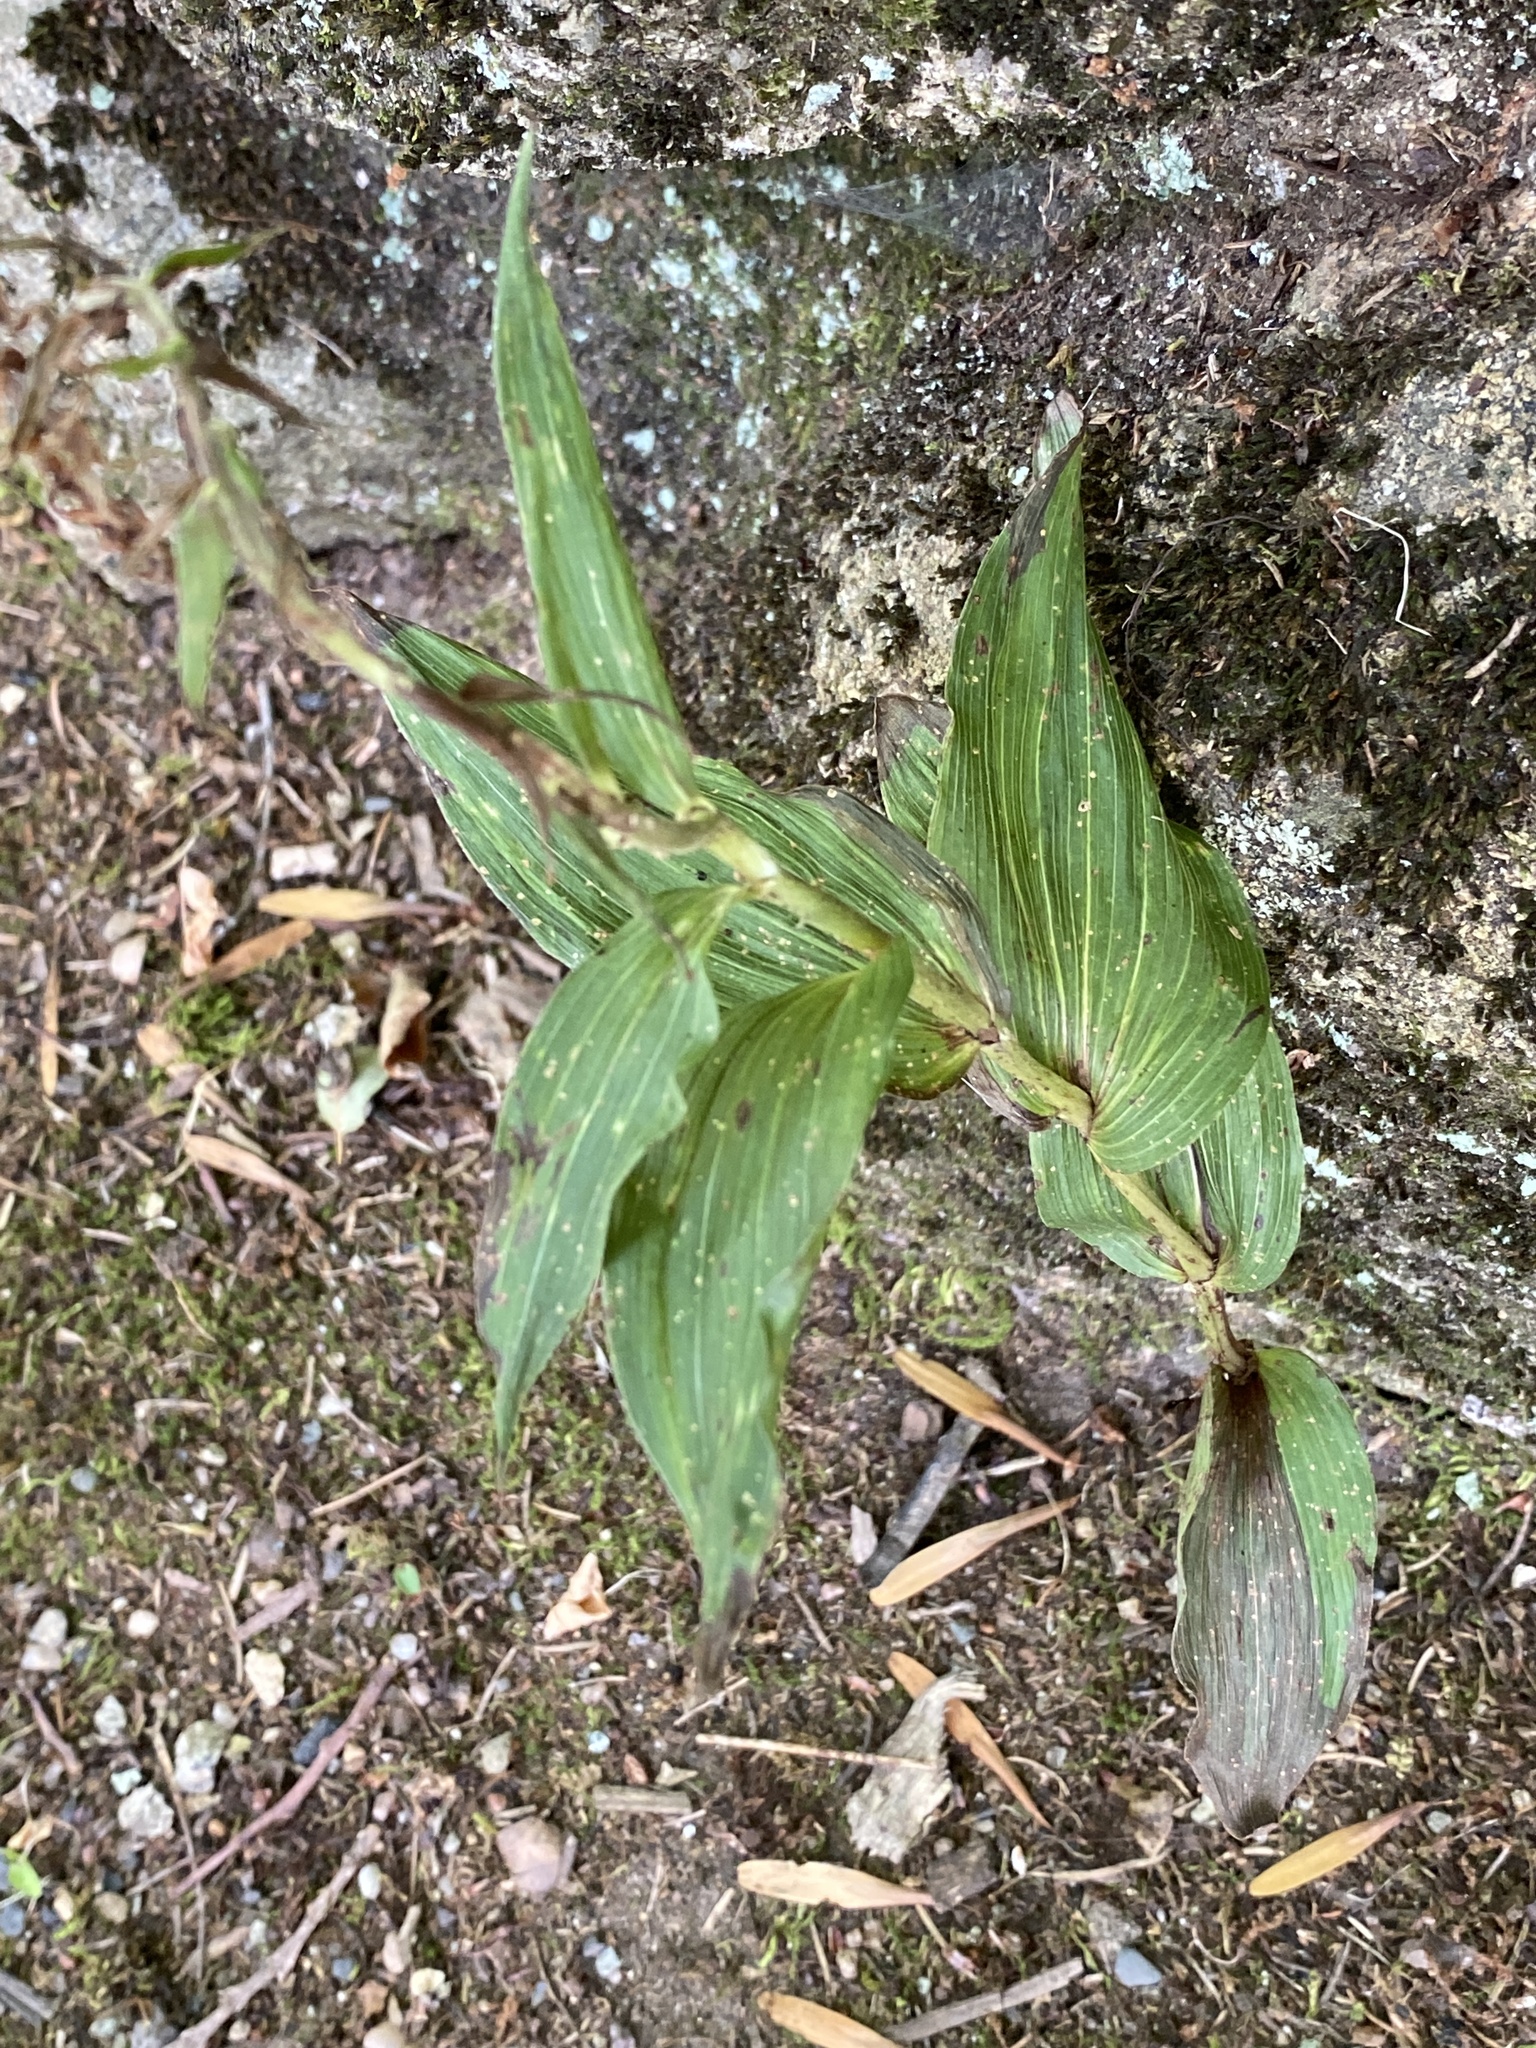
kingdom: Plantae
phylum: Tracheophyta
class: Liliopsida
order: Asparagales
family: Orchidaceae
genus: Epipactis
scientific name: Epipactis helleborine
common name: Broad-leaved helleborine
